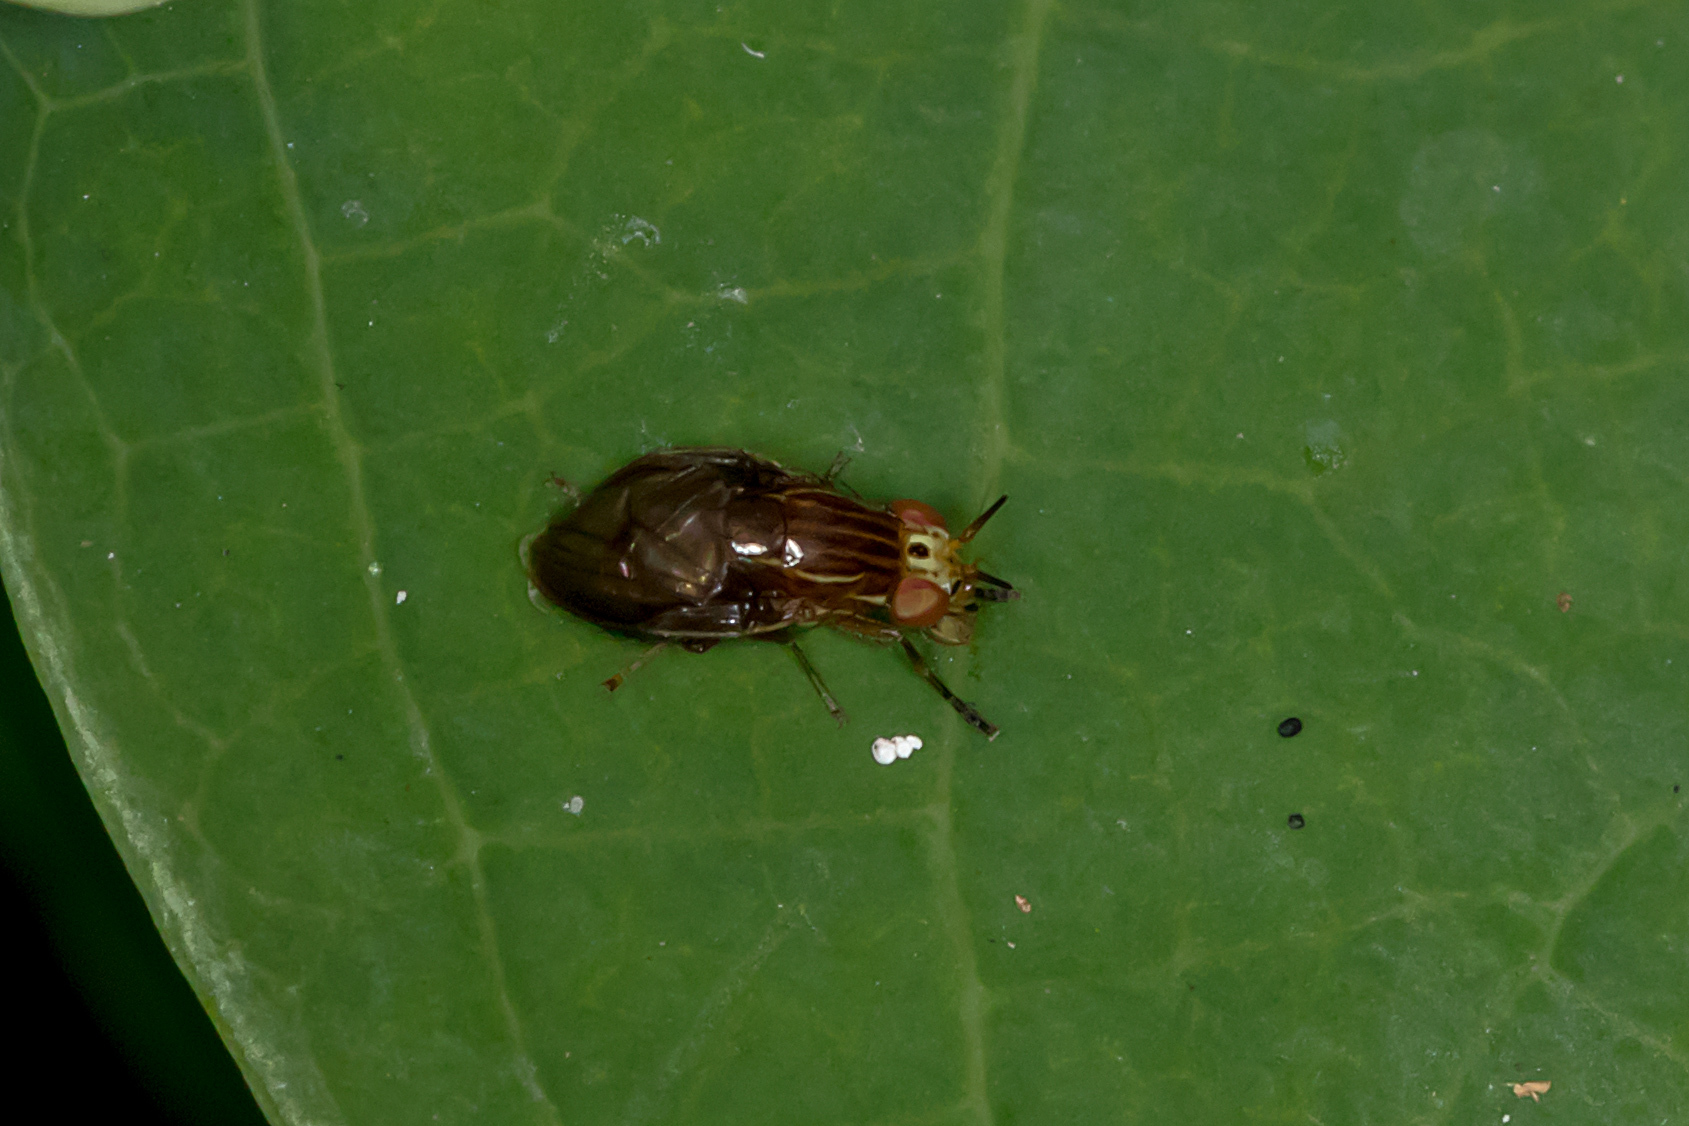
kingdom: Animalia
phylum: Arthropoda
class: Insecta
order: Diptera
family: Lauxaniidae
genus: Steganopsis
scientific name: Steganopsis melanogaster
